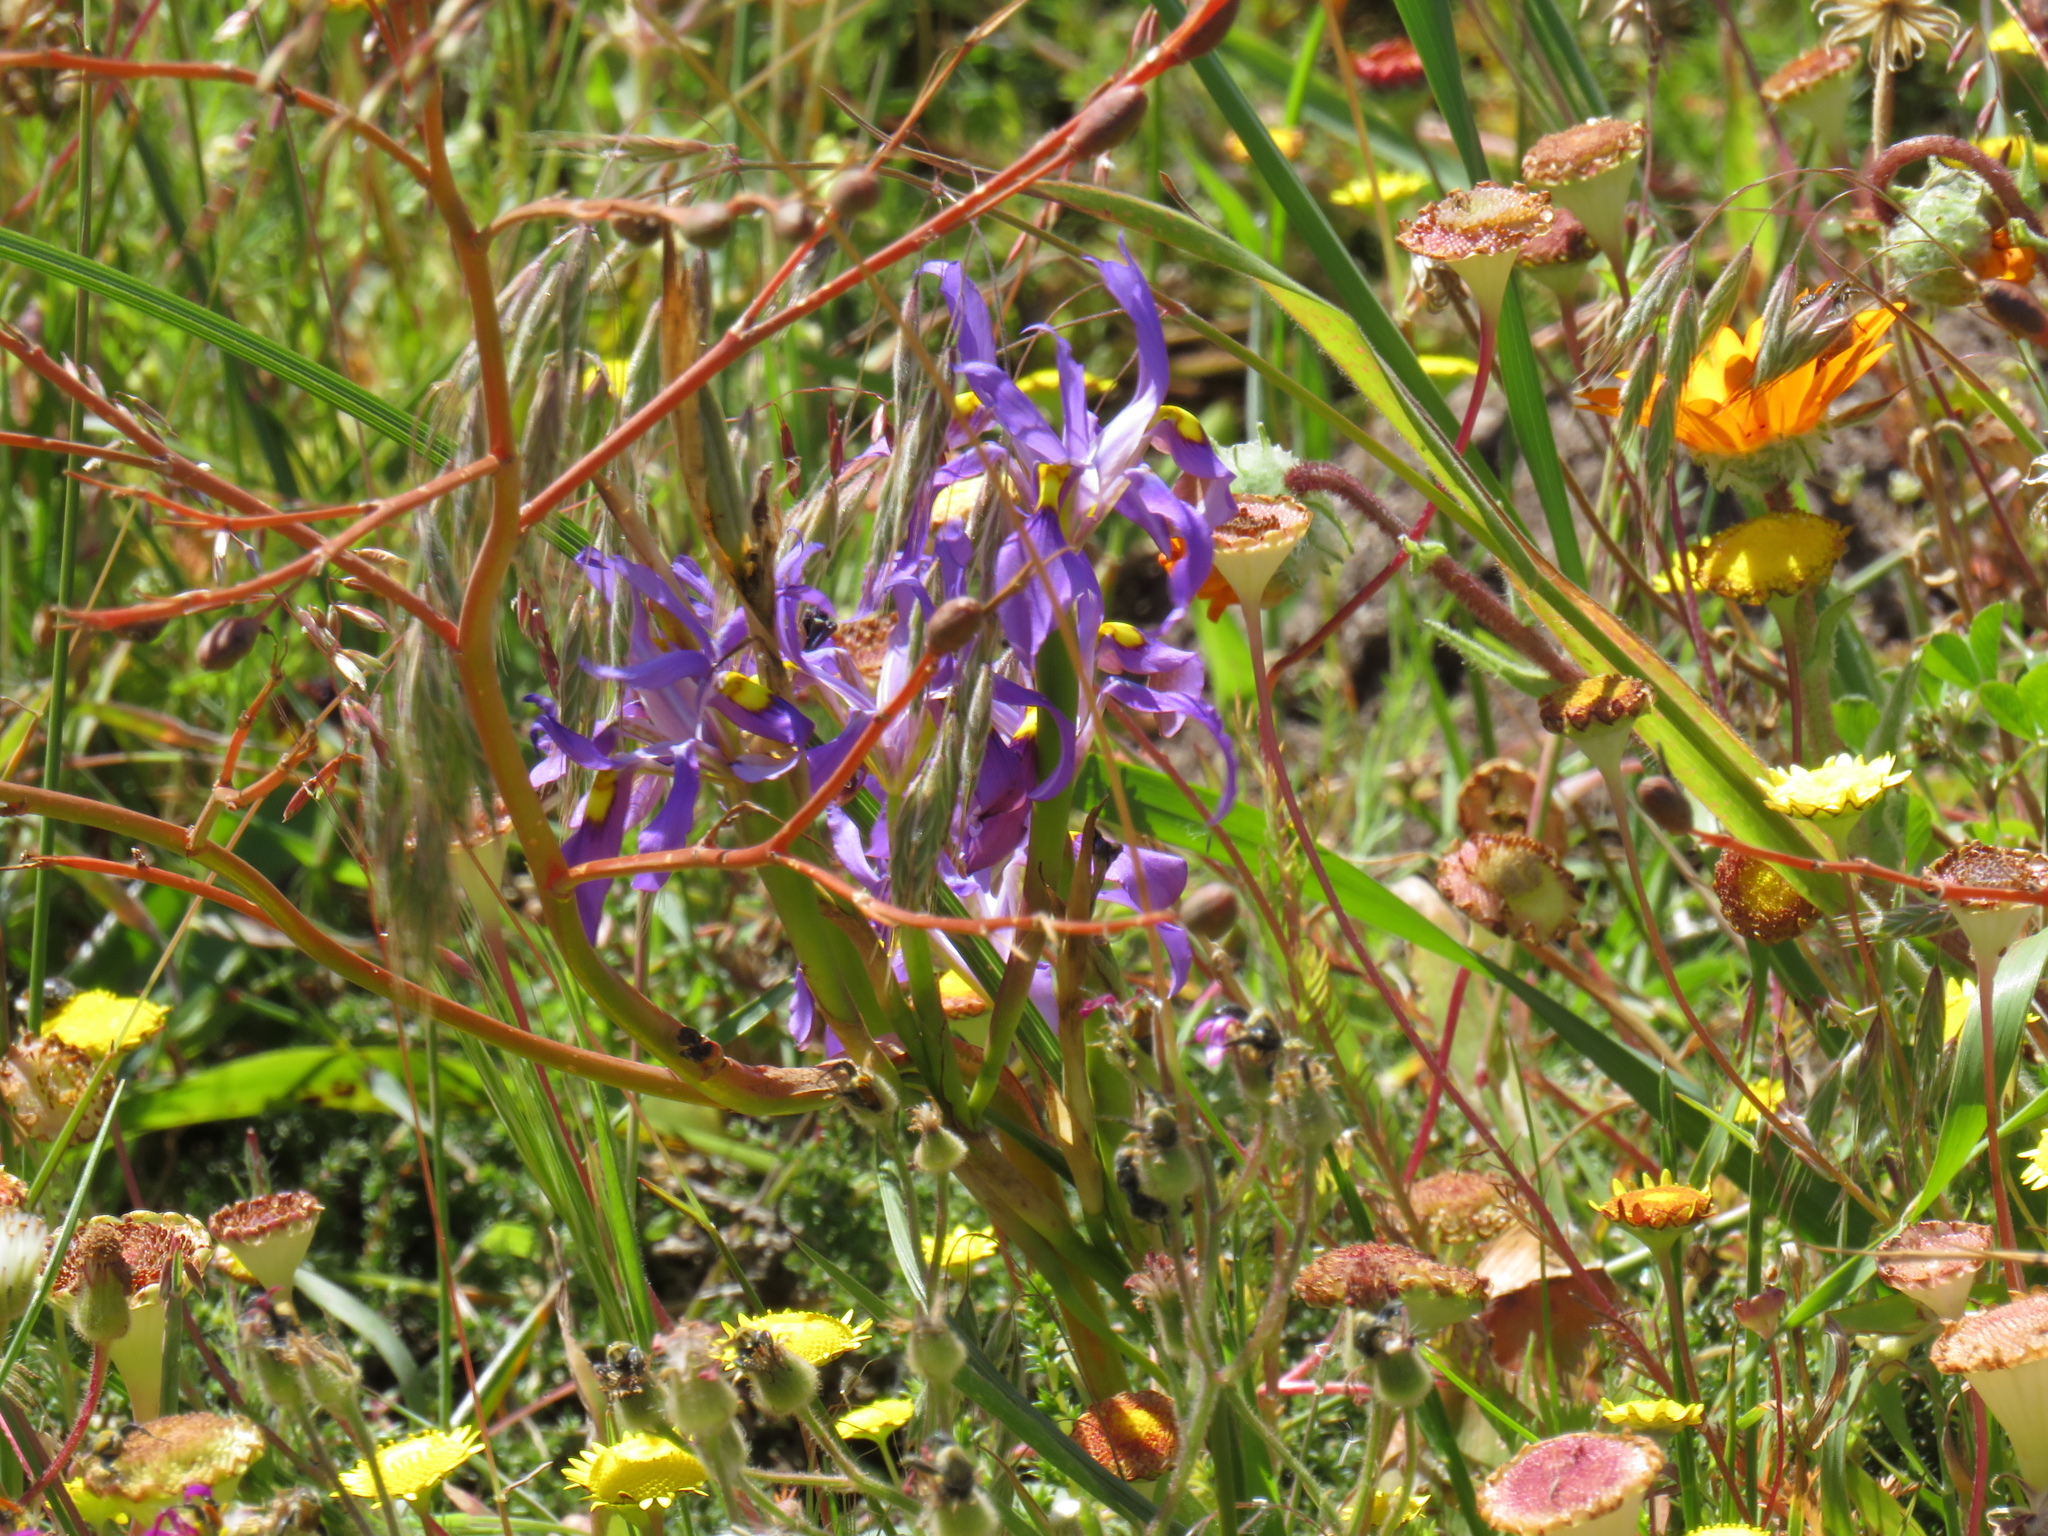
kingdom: Plantae
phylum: Tracheophyta
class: Liliopsida
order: Asparagales
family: Iridaceae
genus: Moraea
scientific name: Moraea fugax
